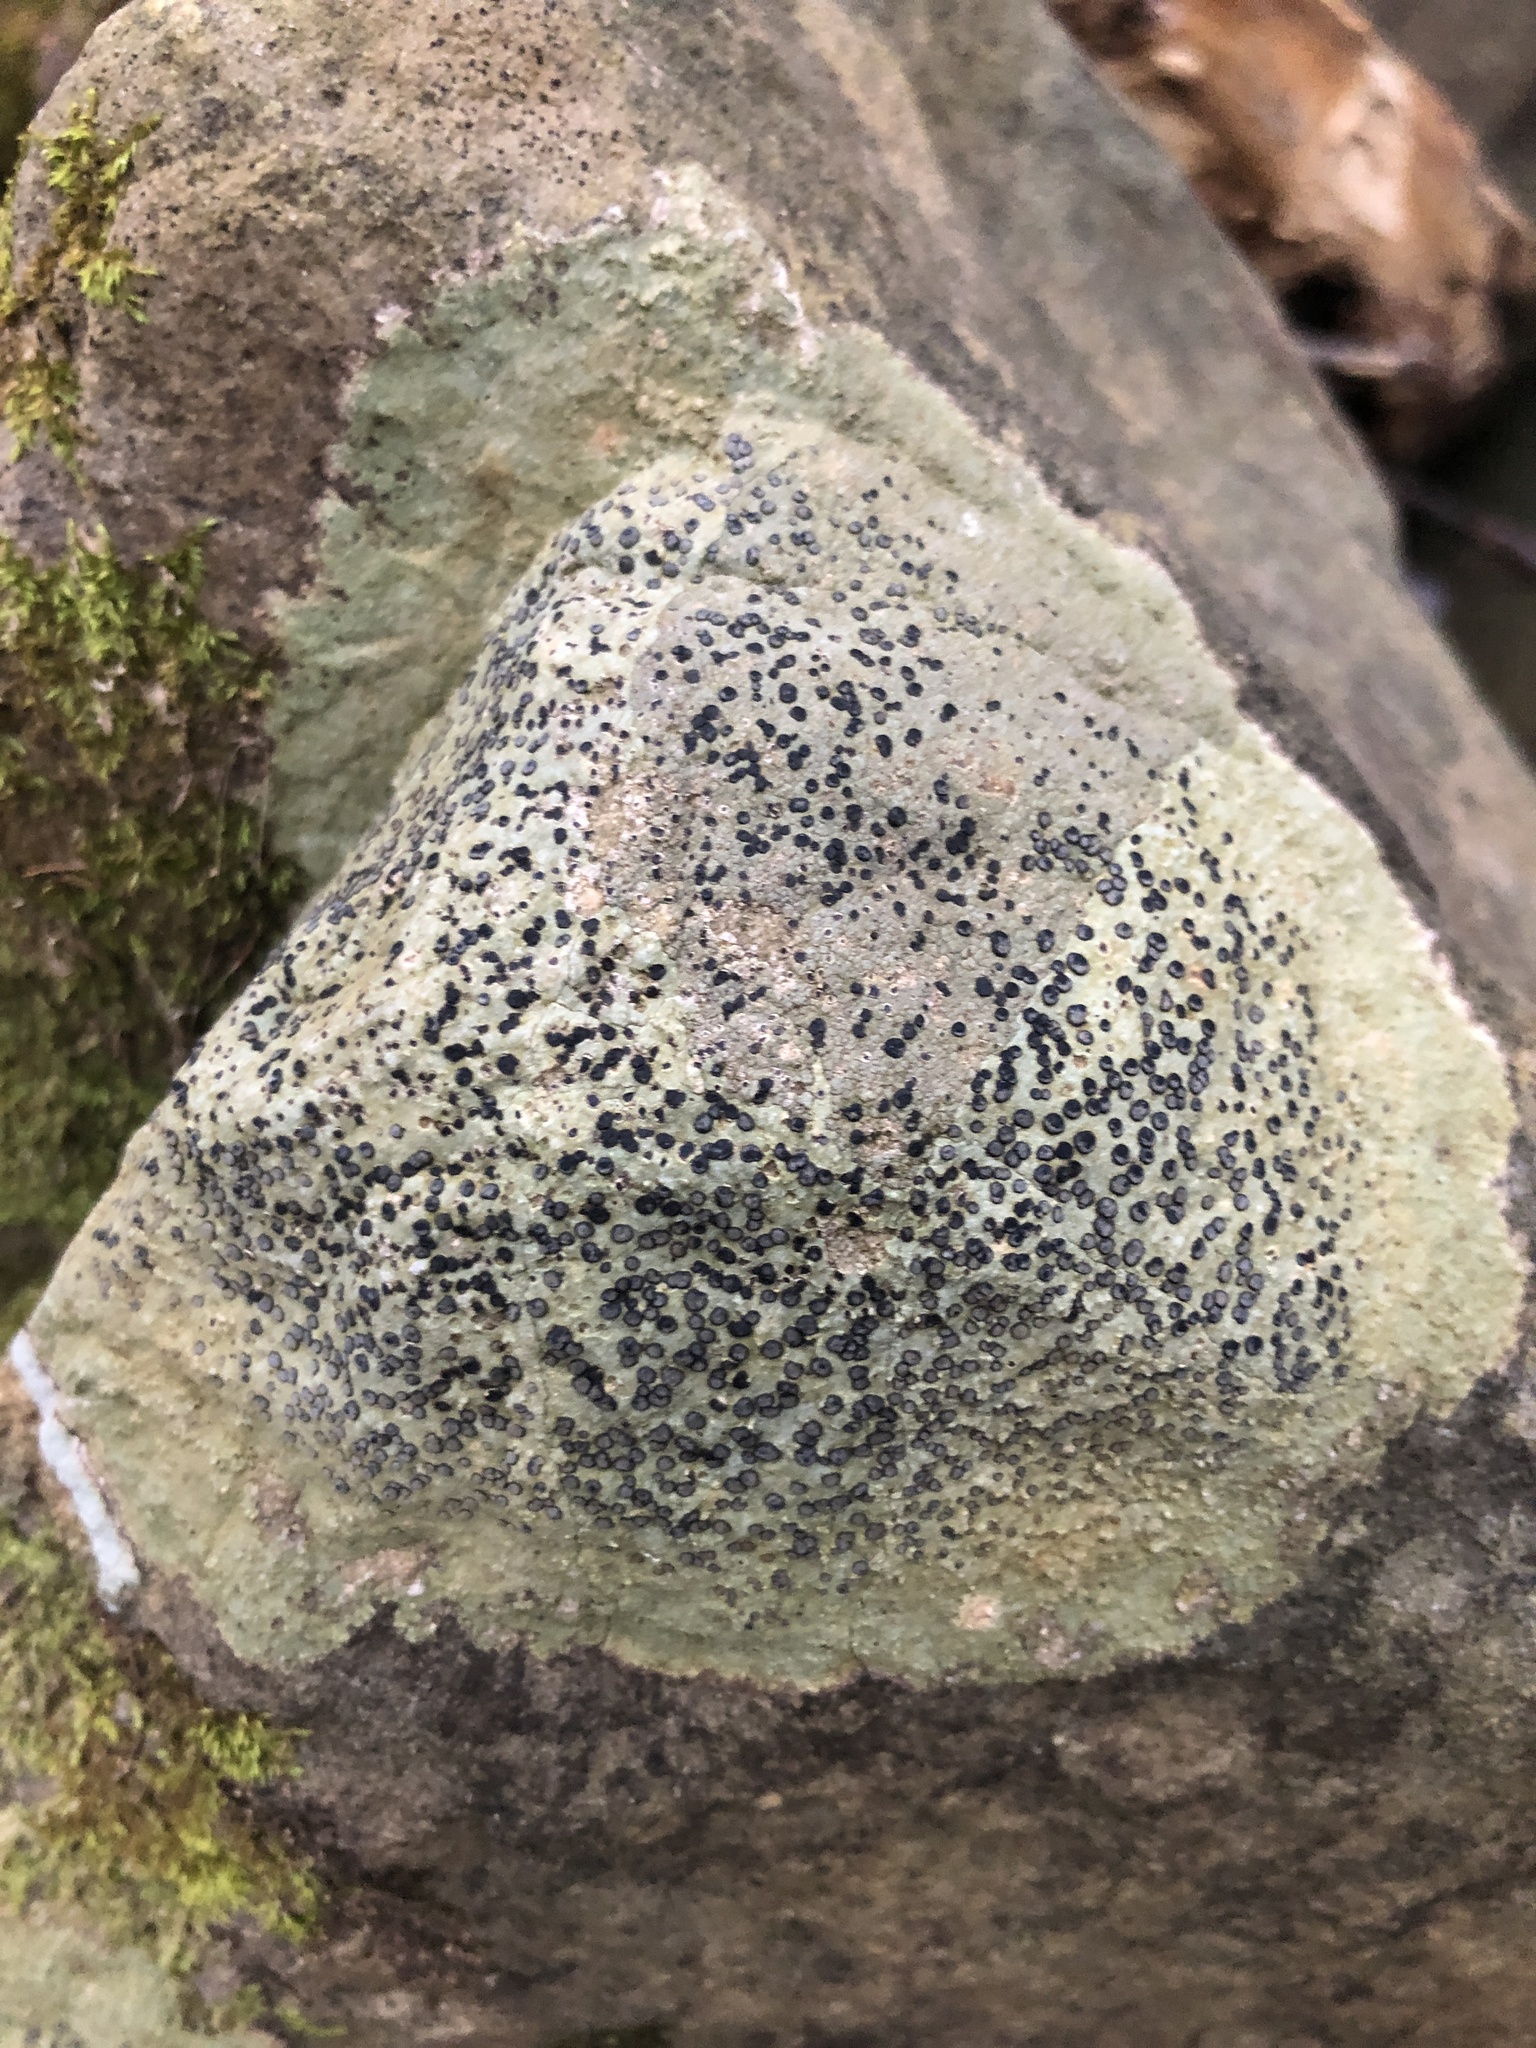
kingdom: Fungi
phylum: Ascomycota
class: Lecanoromycetes
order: Lecideales
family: Lecideaceae
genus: Porpidia
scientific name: Porpidia albocaerulescens
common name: Smokey-eyed boulder lichen
